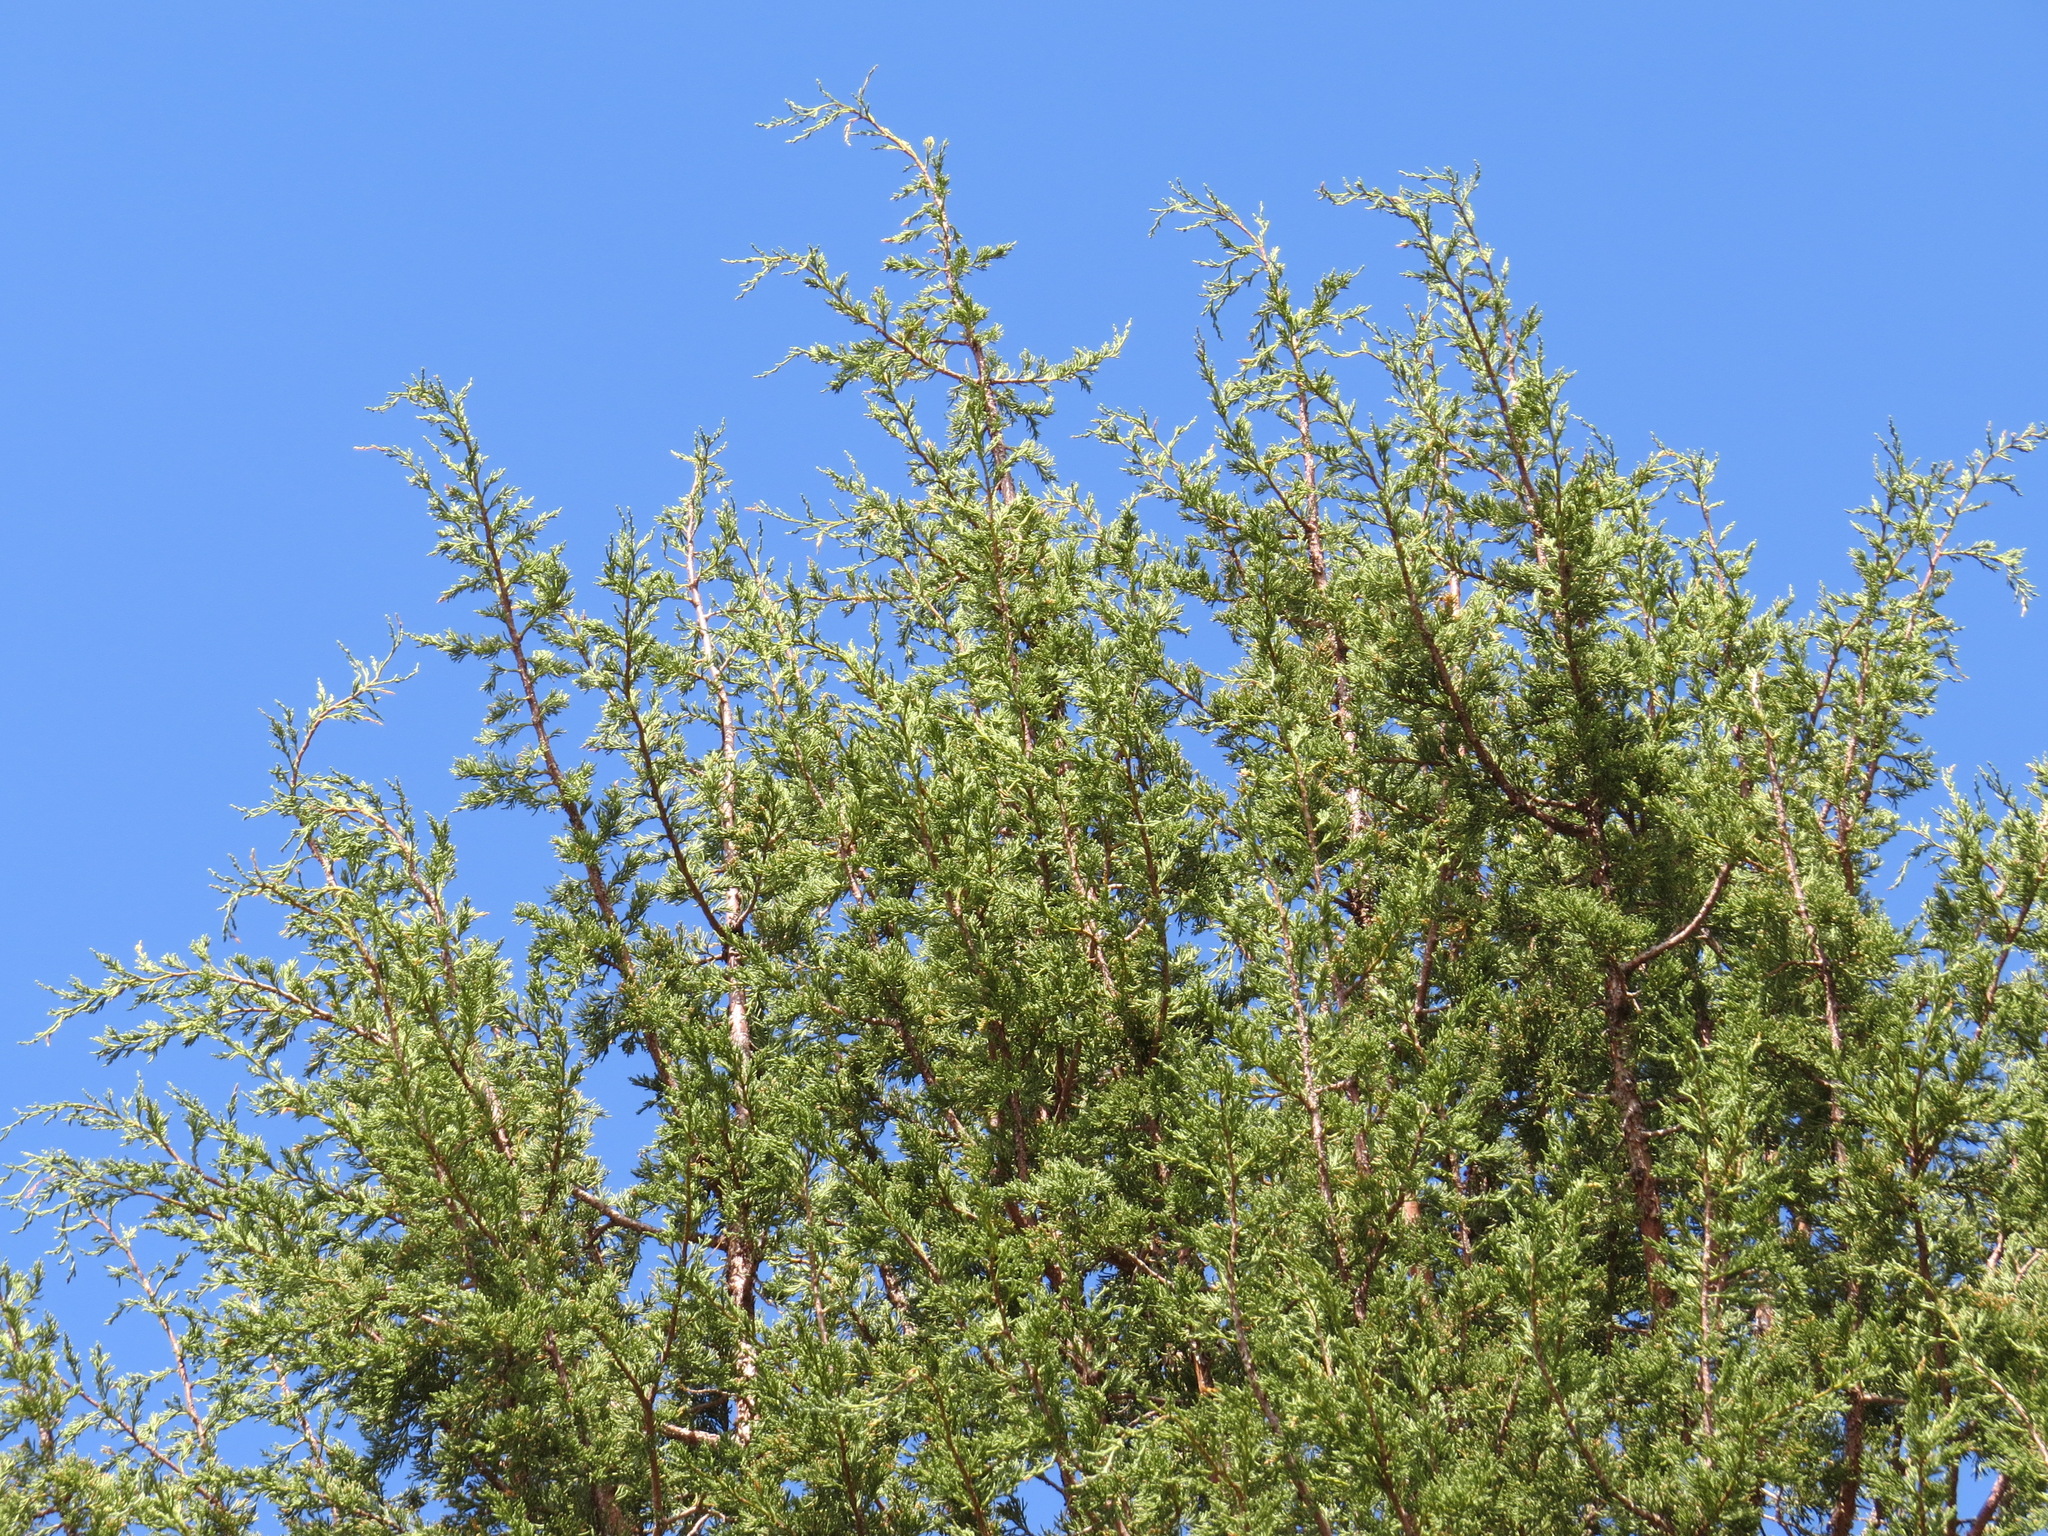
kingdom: Plantae
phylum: Tracheophyta
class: Pinopsida
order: Pinales
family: Cupressaceae
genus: Juniperus
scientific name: Juniperus occidentalis
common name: Western juniper
